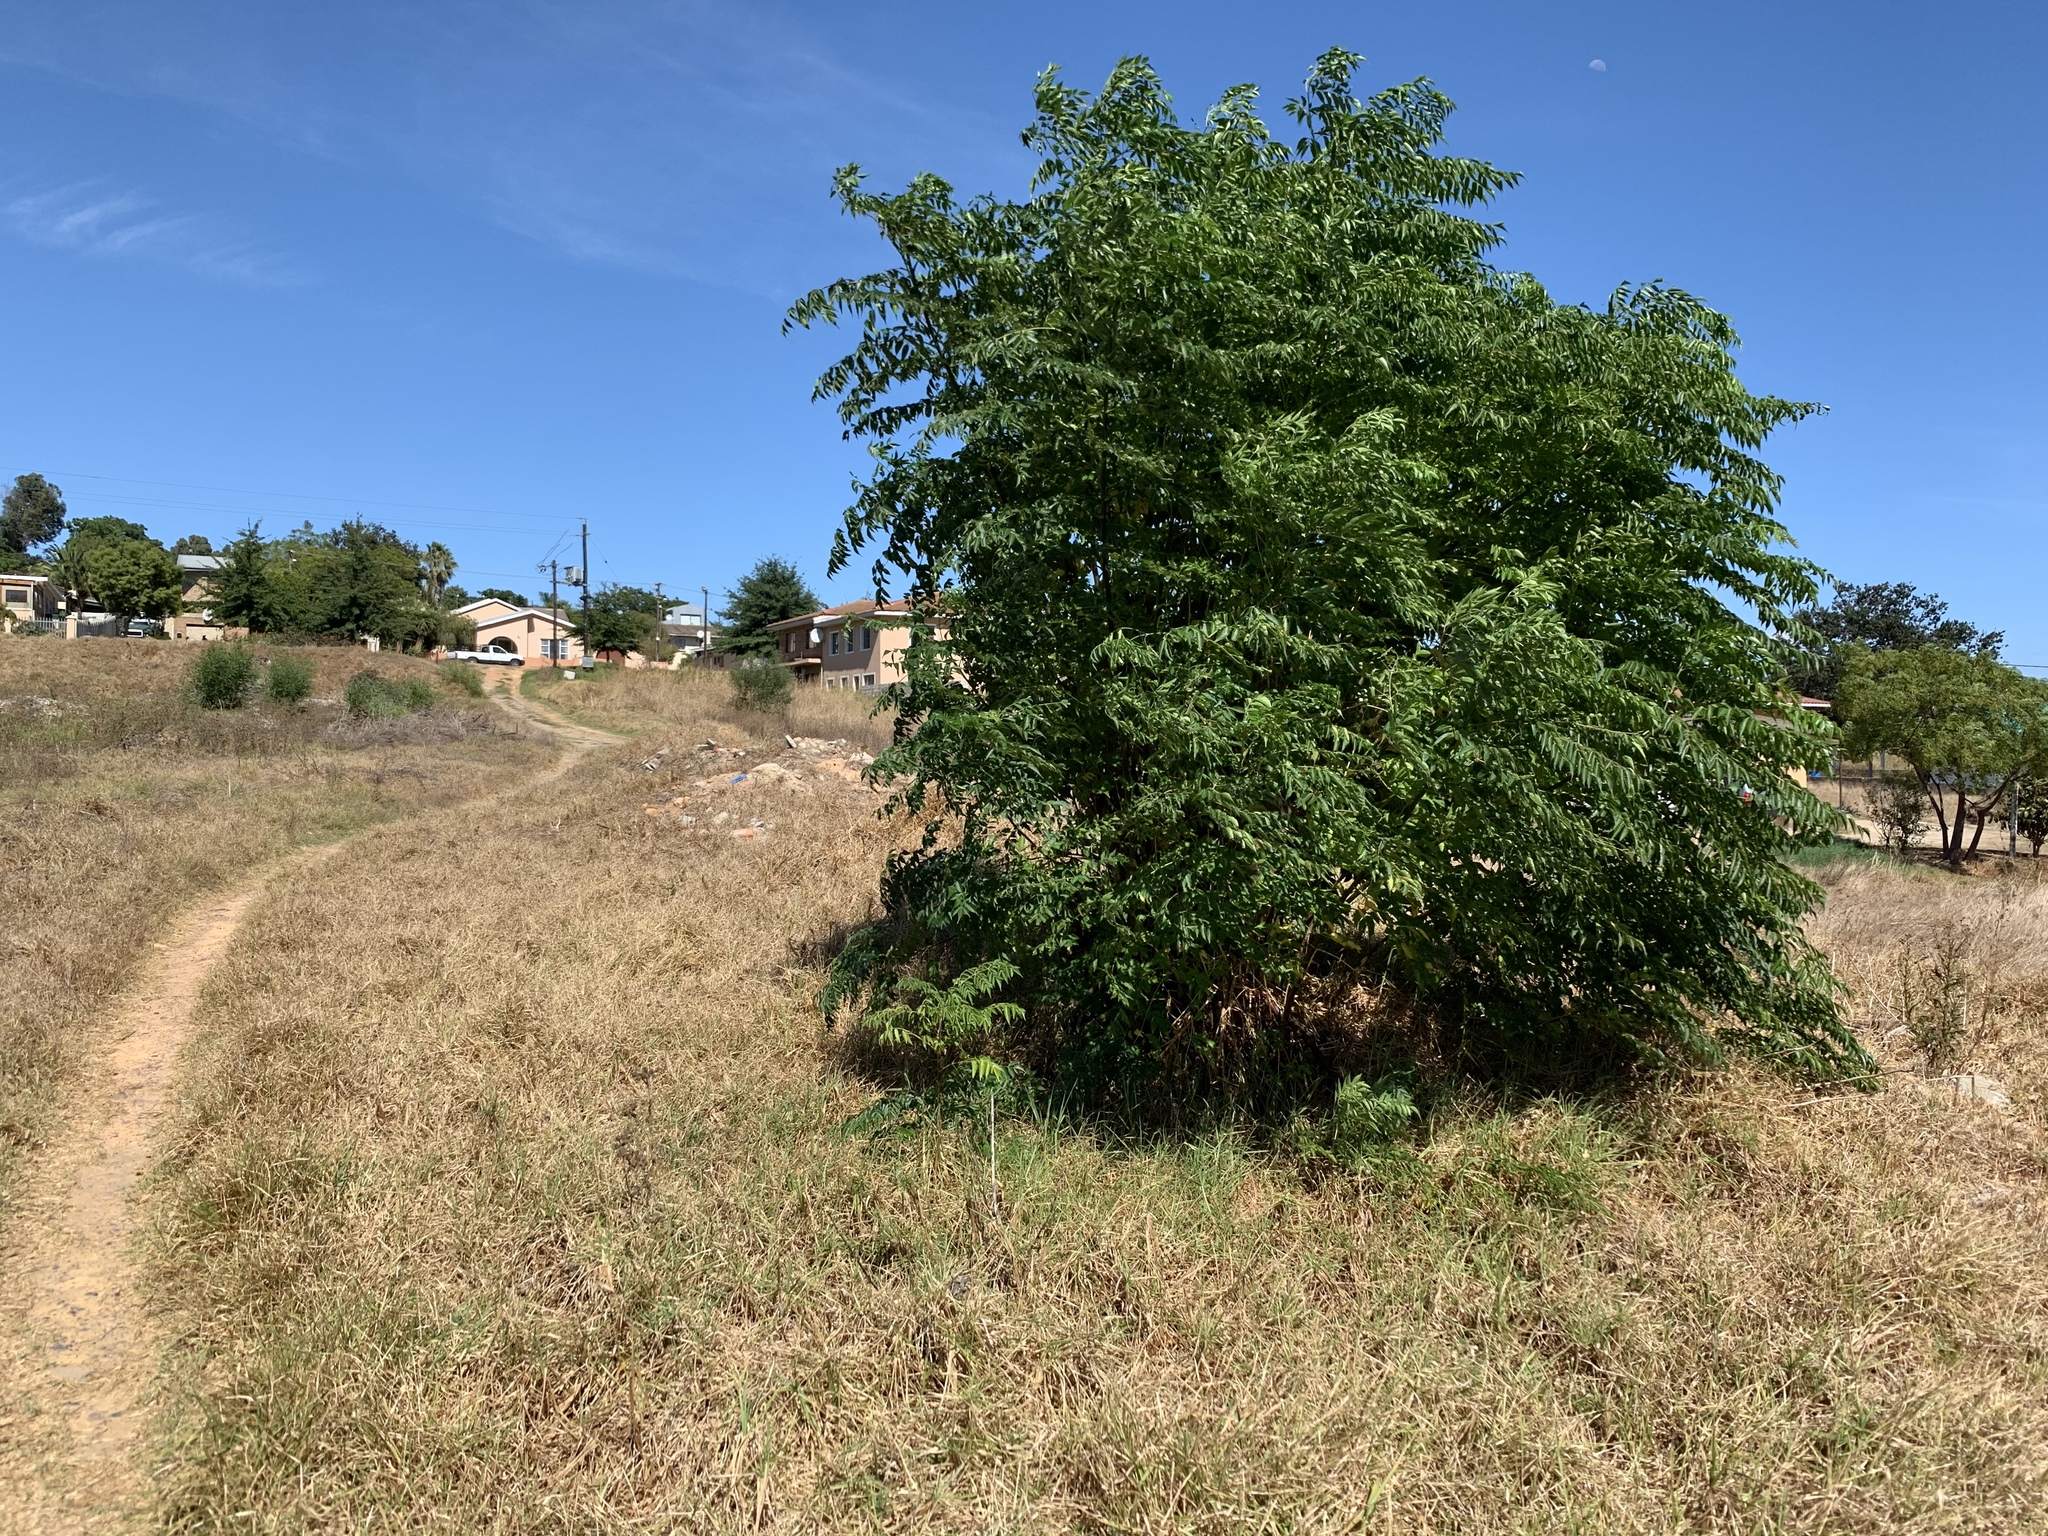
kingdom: Plantae
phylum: Tracheophyta
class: Magnoliopsida
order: Sapindales
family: Meliaceae
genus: Melia
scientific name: Melia azedarach
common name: Chinaberrytree
